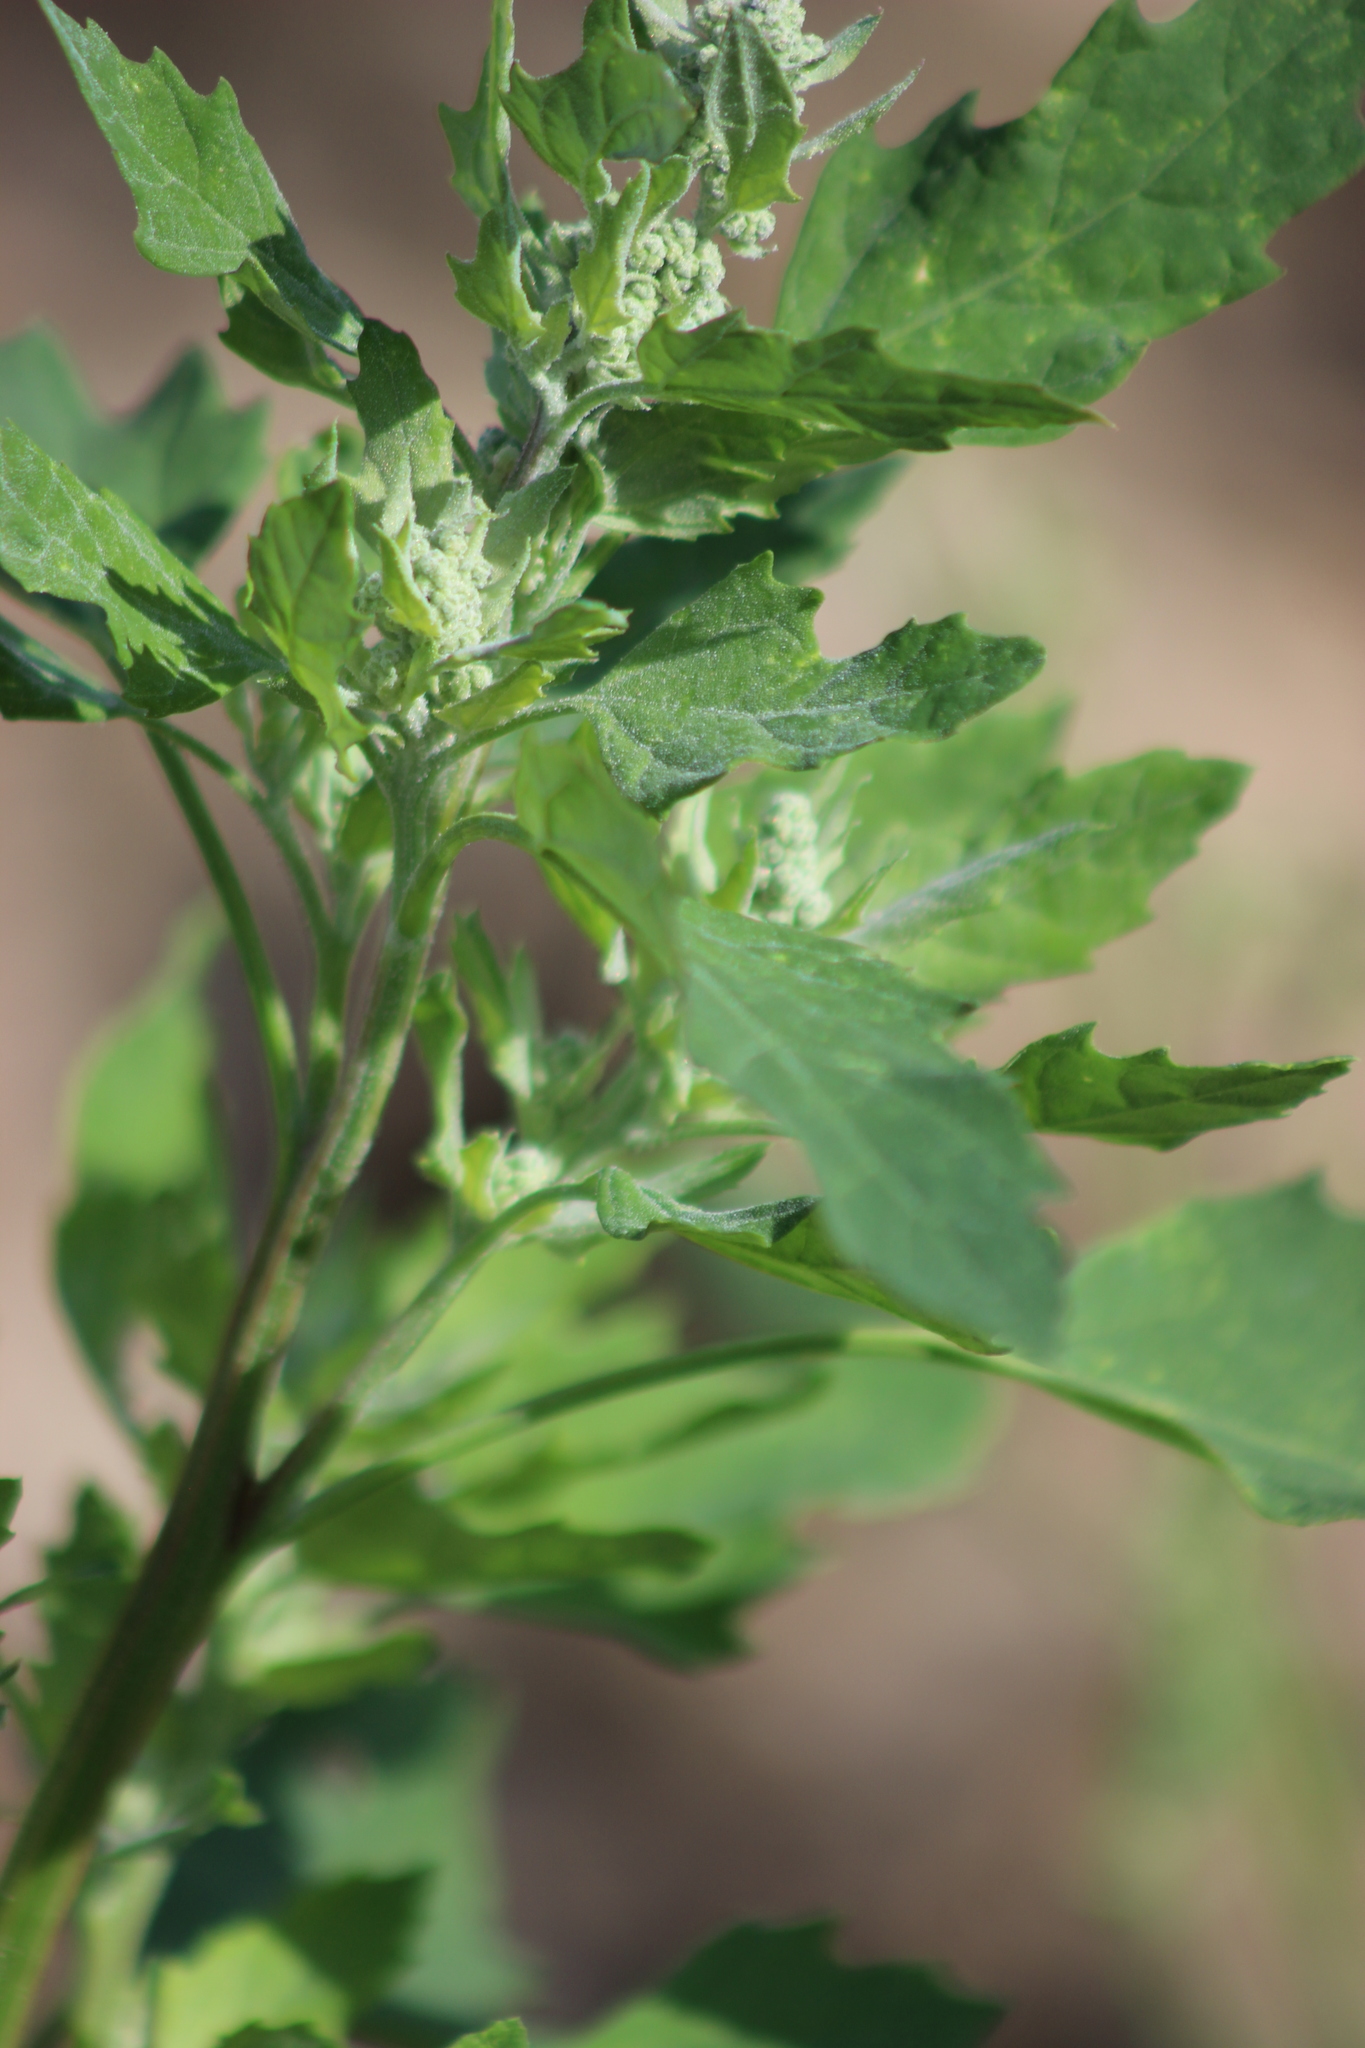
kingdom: Plantae
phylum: Tracheophyta
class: Magnoliopsida
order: Caryophyllales
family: Amaranthaceae
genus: Chenopodium
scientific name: Chenopodium album
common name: Fat-hen
